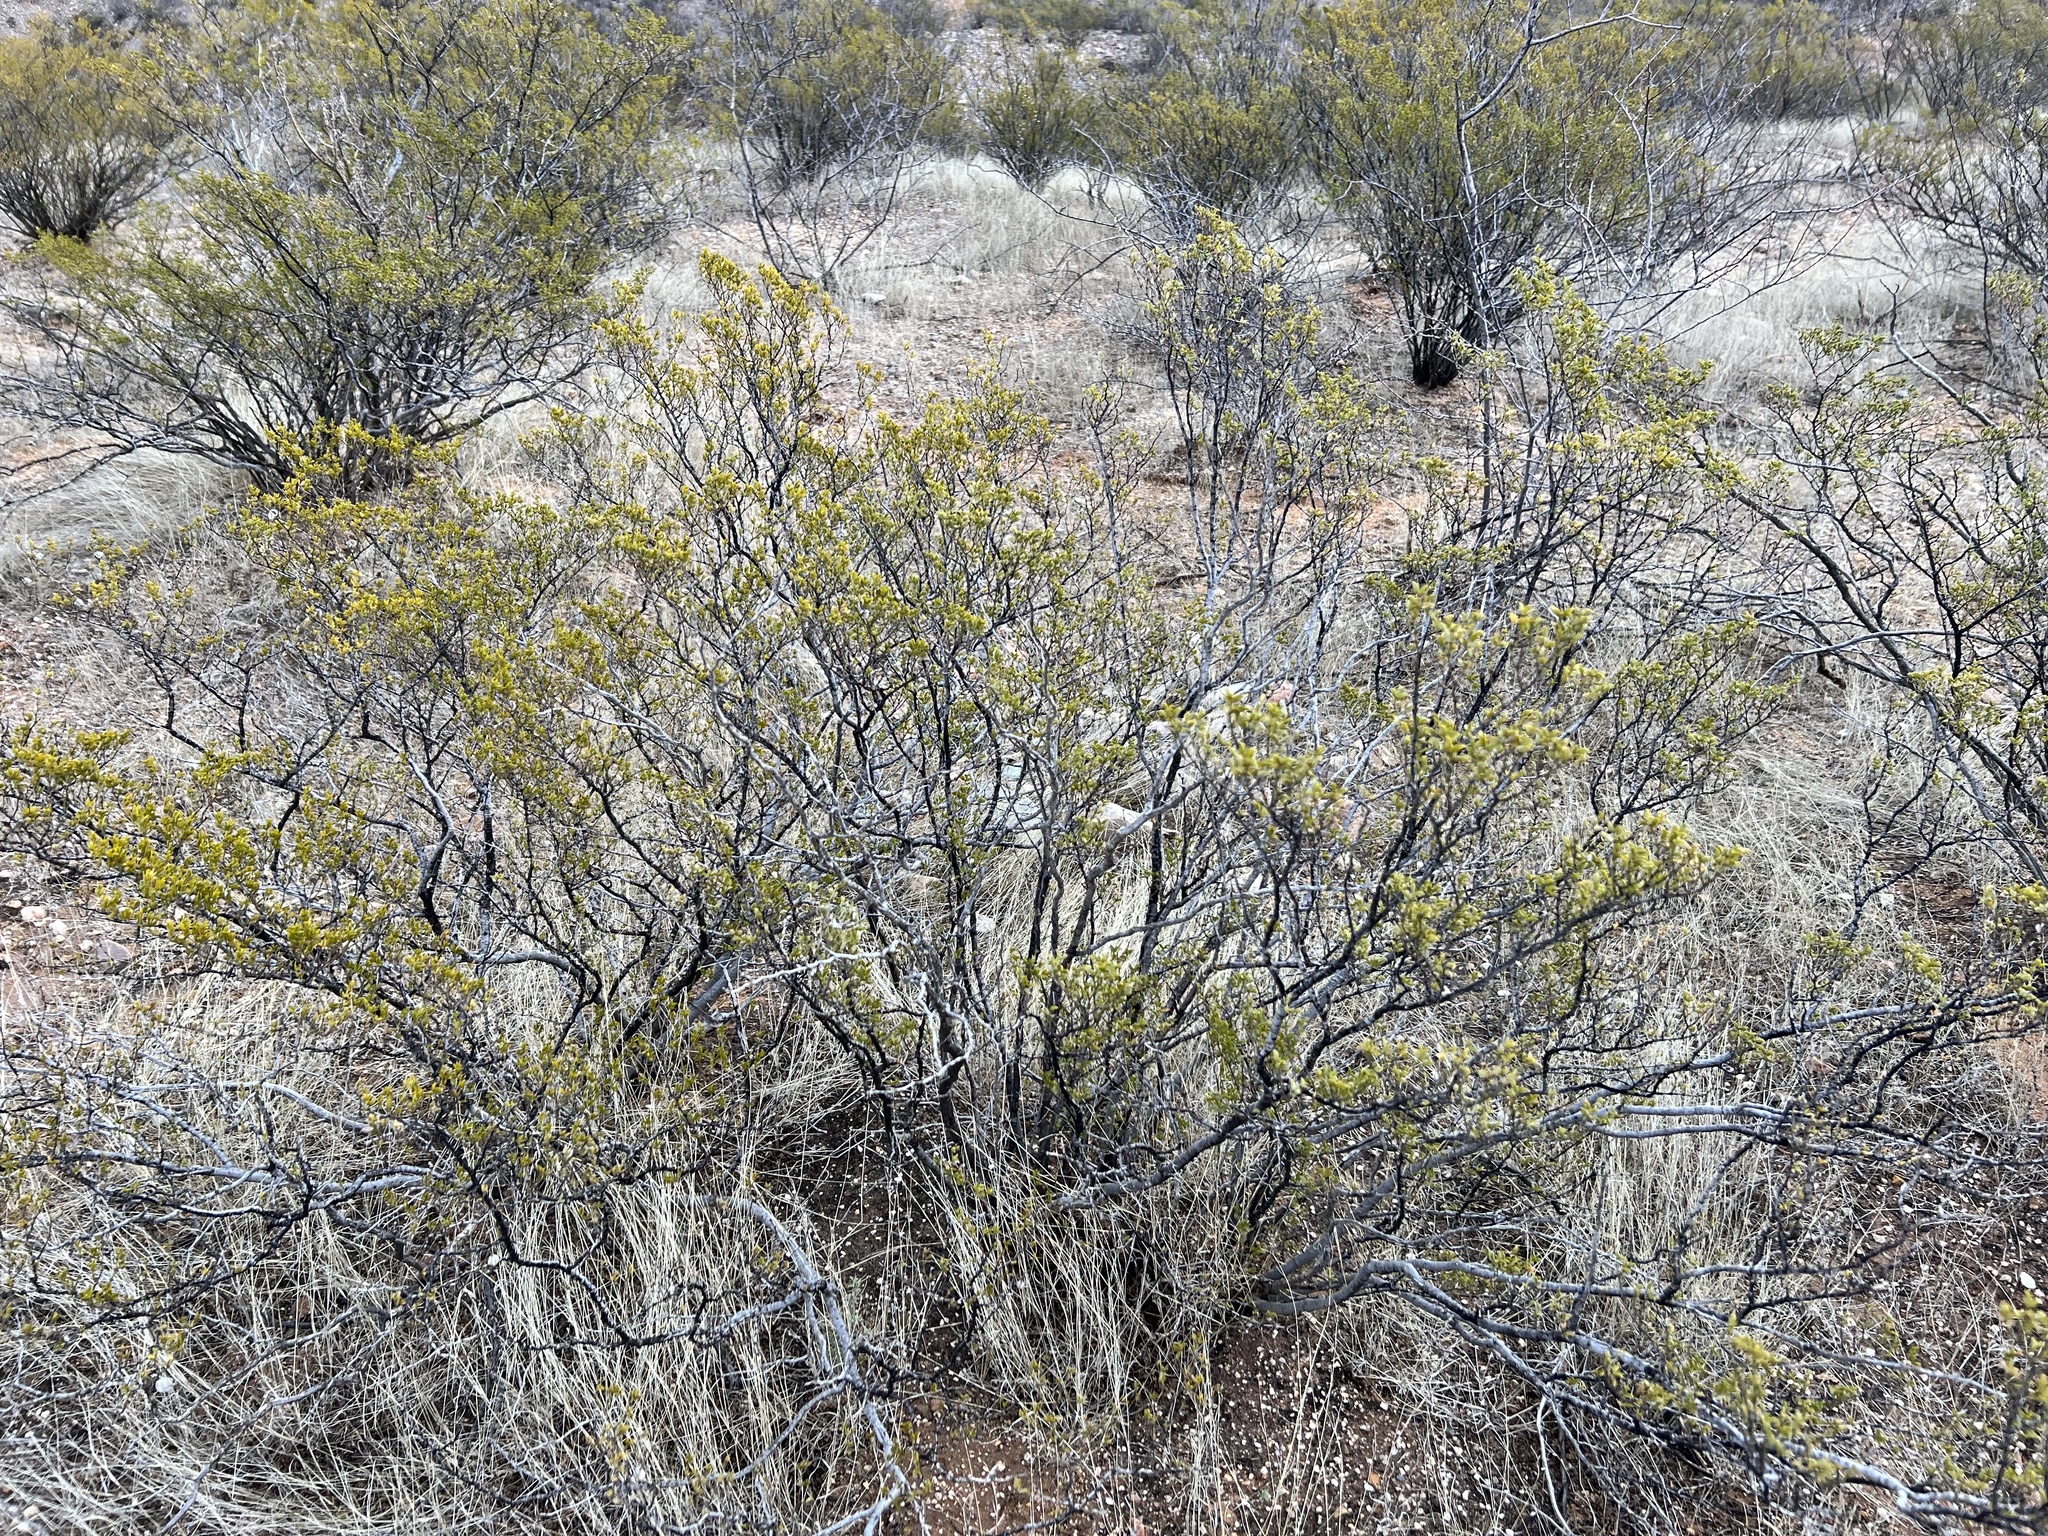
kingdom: Plantae
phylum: Tracheophyta
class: Magnoliopsida
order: Zygophyllales
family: Zygophyllaceae
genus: Larrea
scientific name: Larrea tridentata
